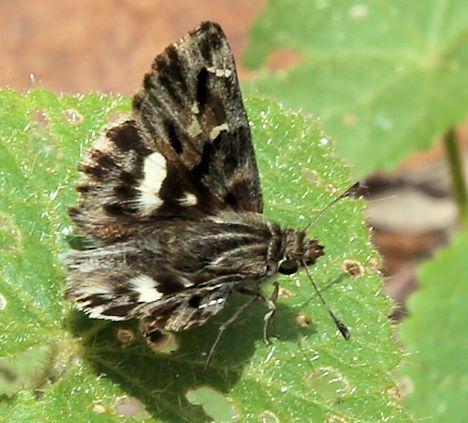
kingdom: Animalia
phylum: Arthropoda
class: Insecta
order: Lepidoptera
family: Hesperiidae
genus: Gomalia
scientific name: Gomalia elma
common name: Green-marbled skipper
